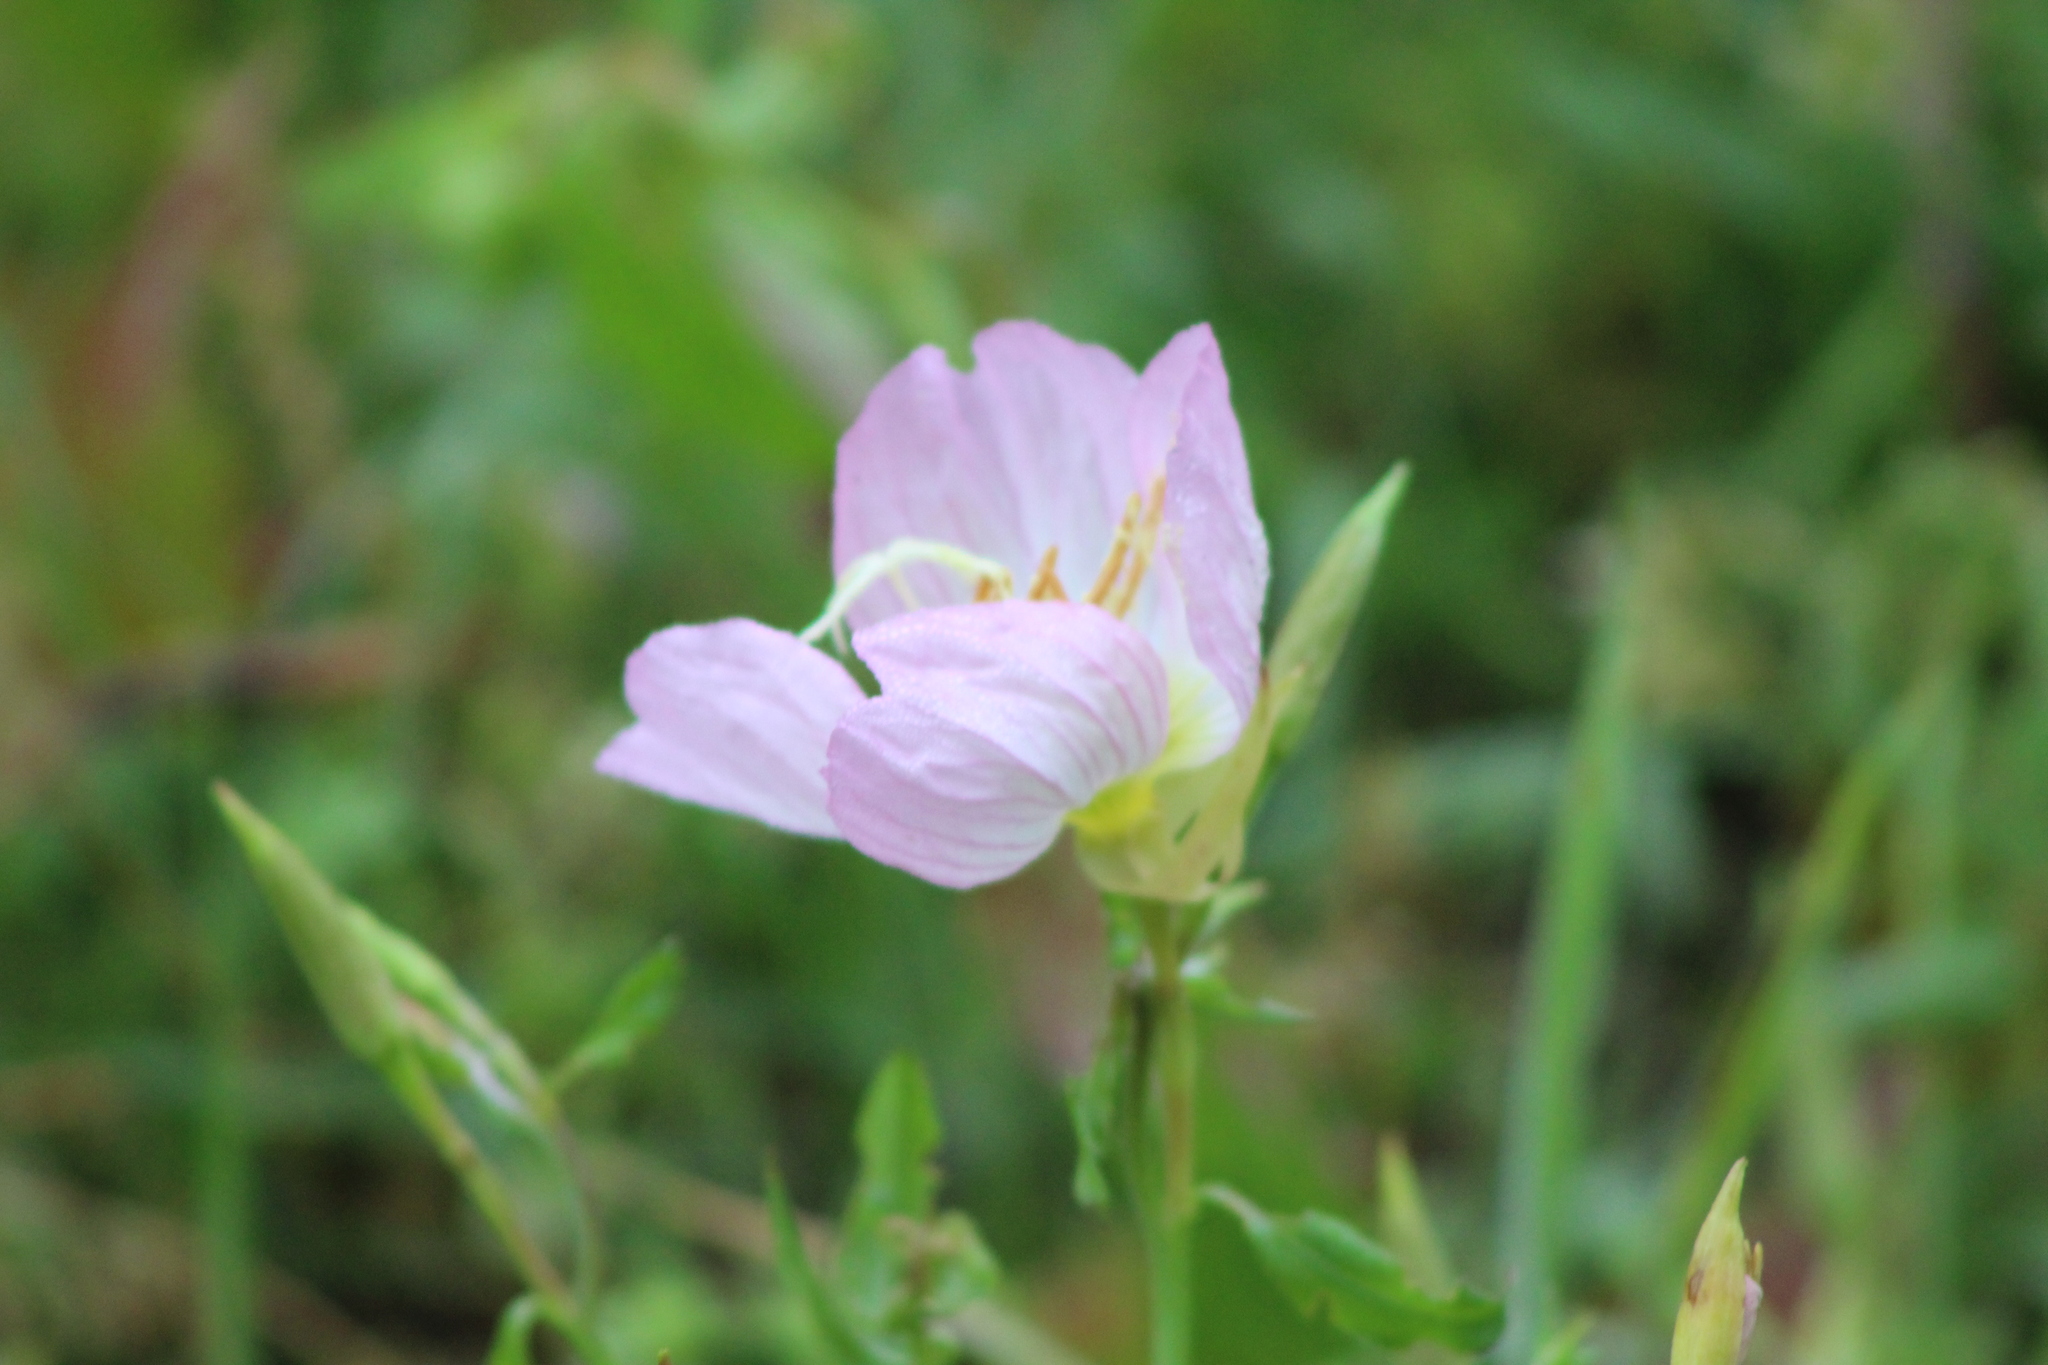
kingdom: Plantae
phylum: Tracheophyta
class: Magnoliopsida
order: Myrtales
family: Onagraceae
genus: Oenothera
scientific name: Oenothera speciosa
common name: White evening-primrose
